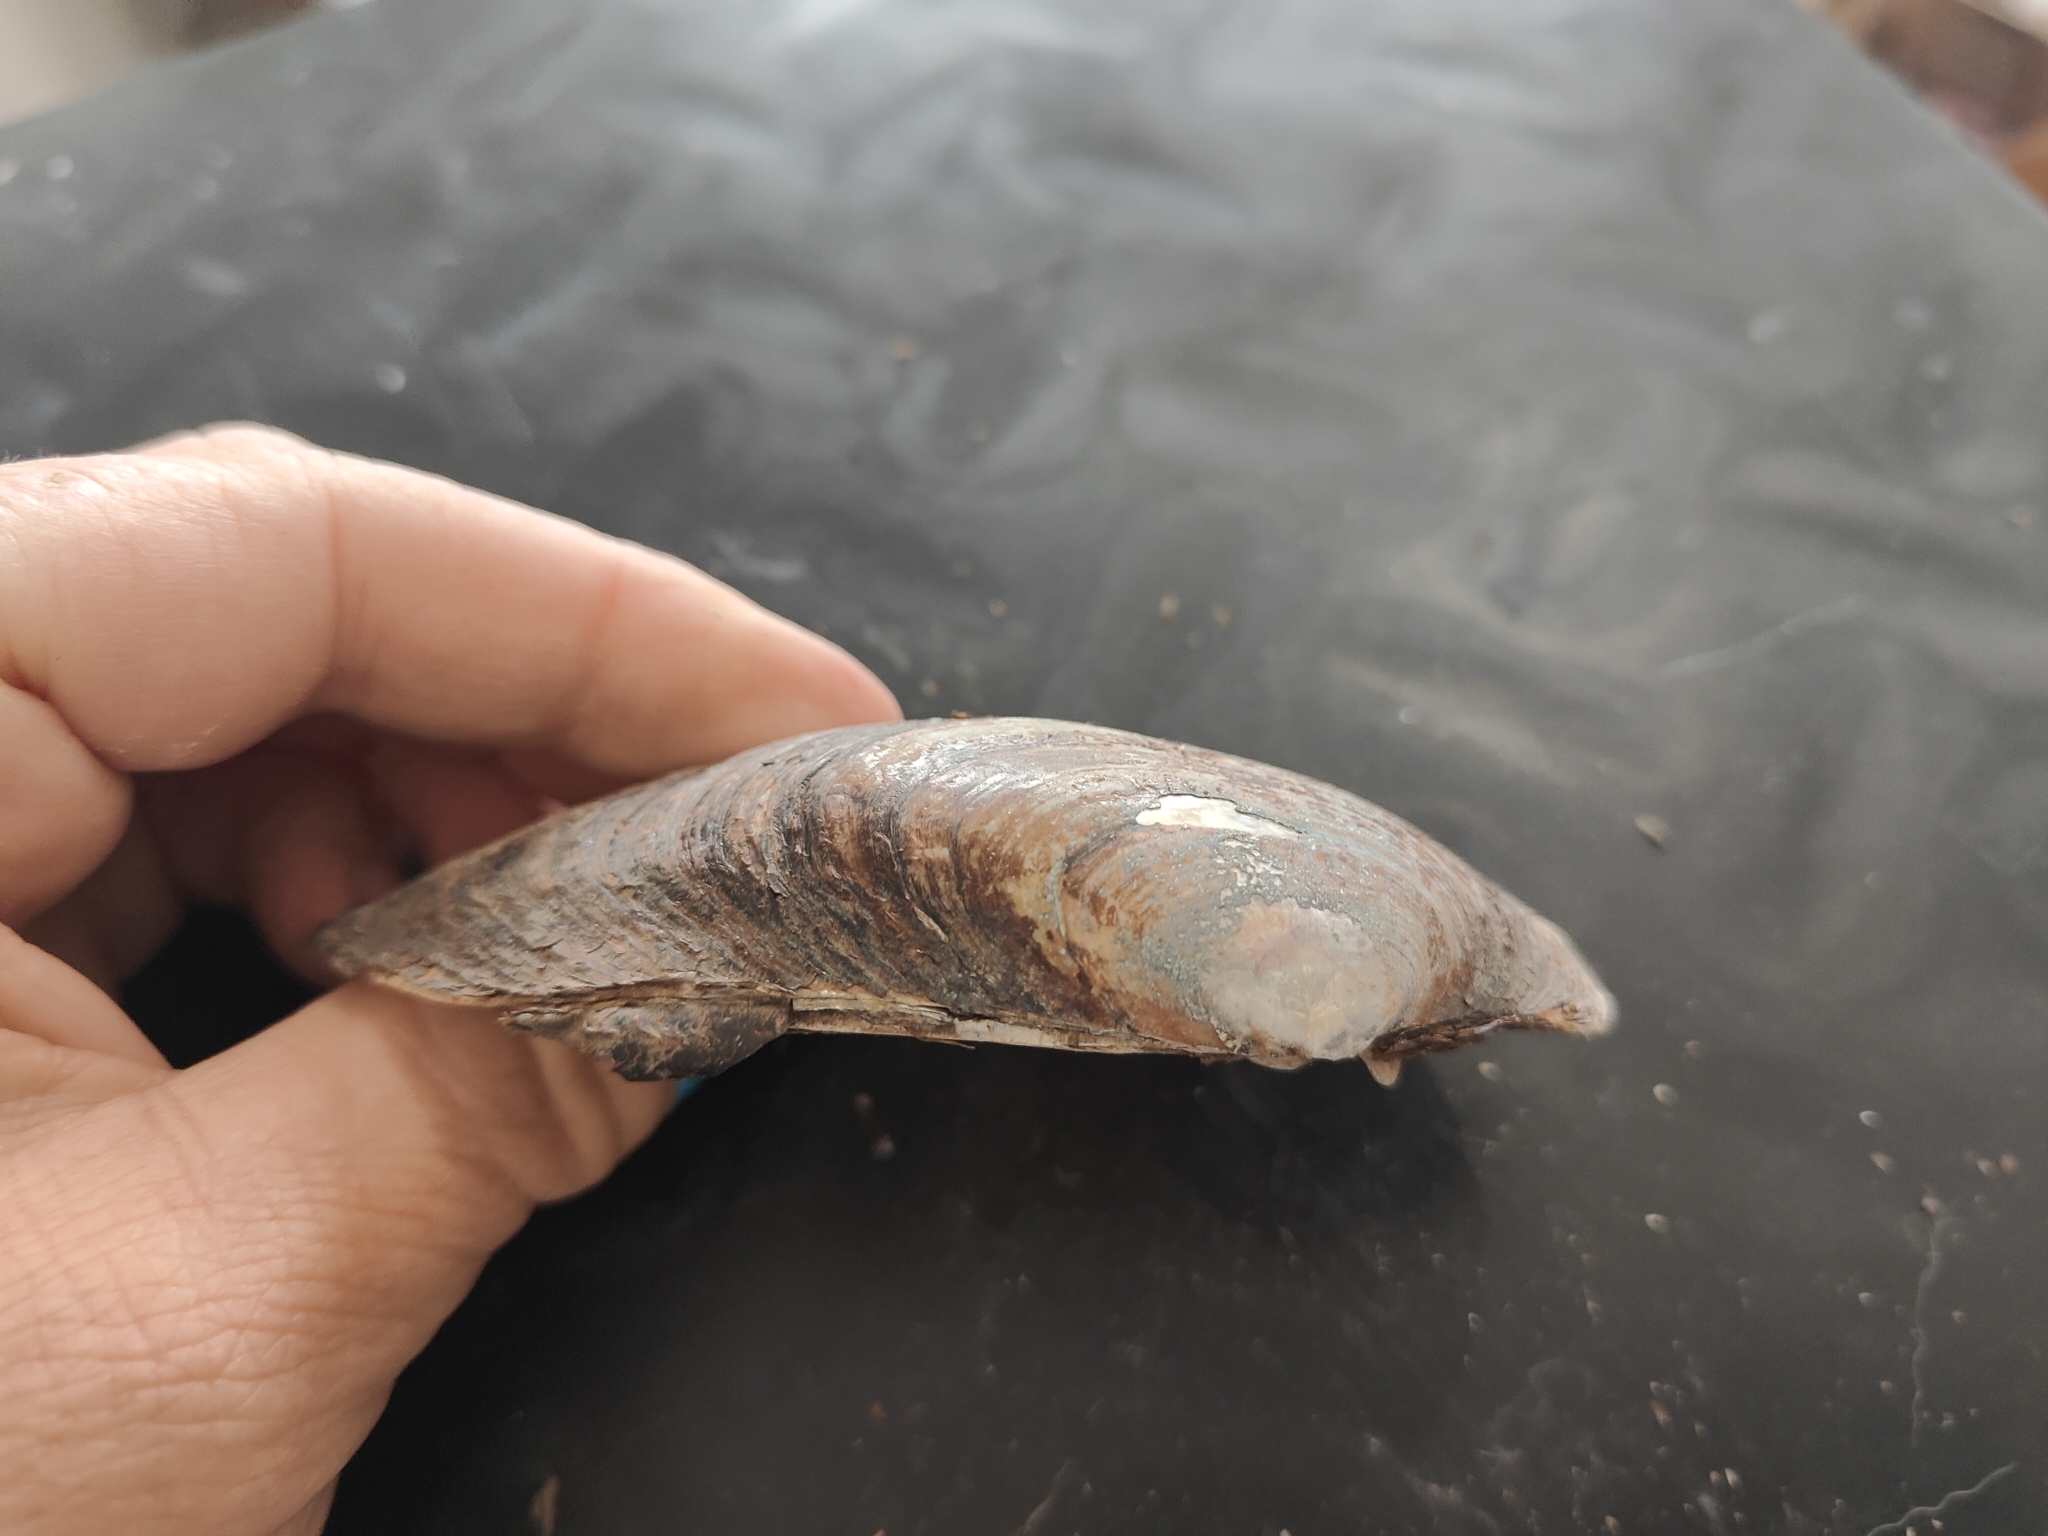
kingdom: Animalia
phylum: Mollusca
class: Bivalvia
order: Unionida
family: Unionidae
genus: Lampsilis
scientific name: Lampsilis siliquoidea
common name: Fatmucket
